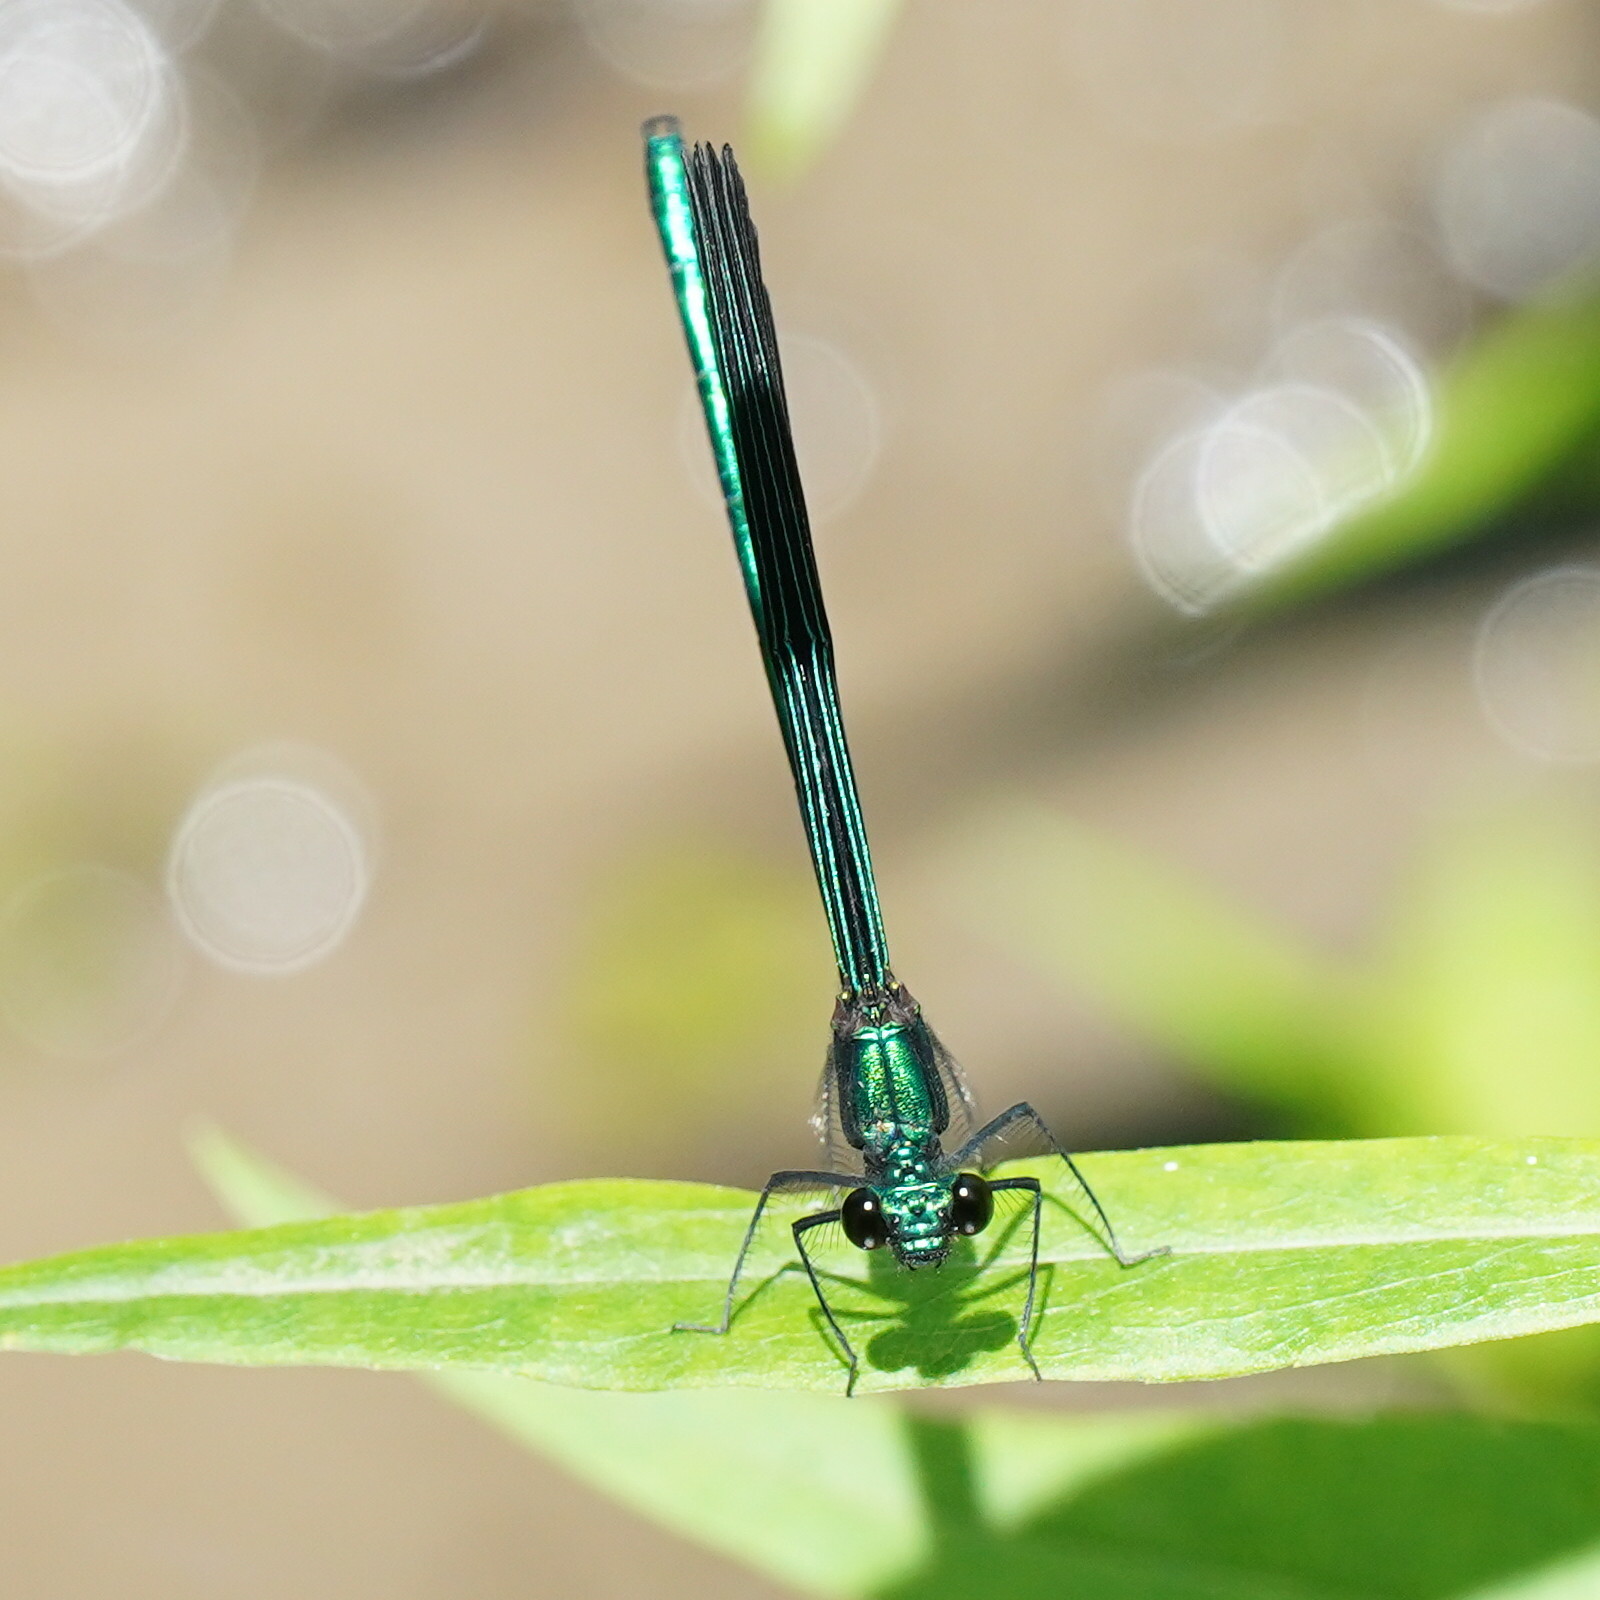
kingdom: Animalia
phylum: Arthropoda
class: Insecta
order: Odonata
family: Calopterygidae
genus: Calopteryx
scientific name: Calopteryx maculata
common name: Ebony jewelwing
